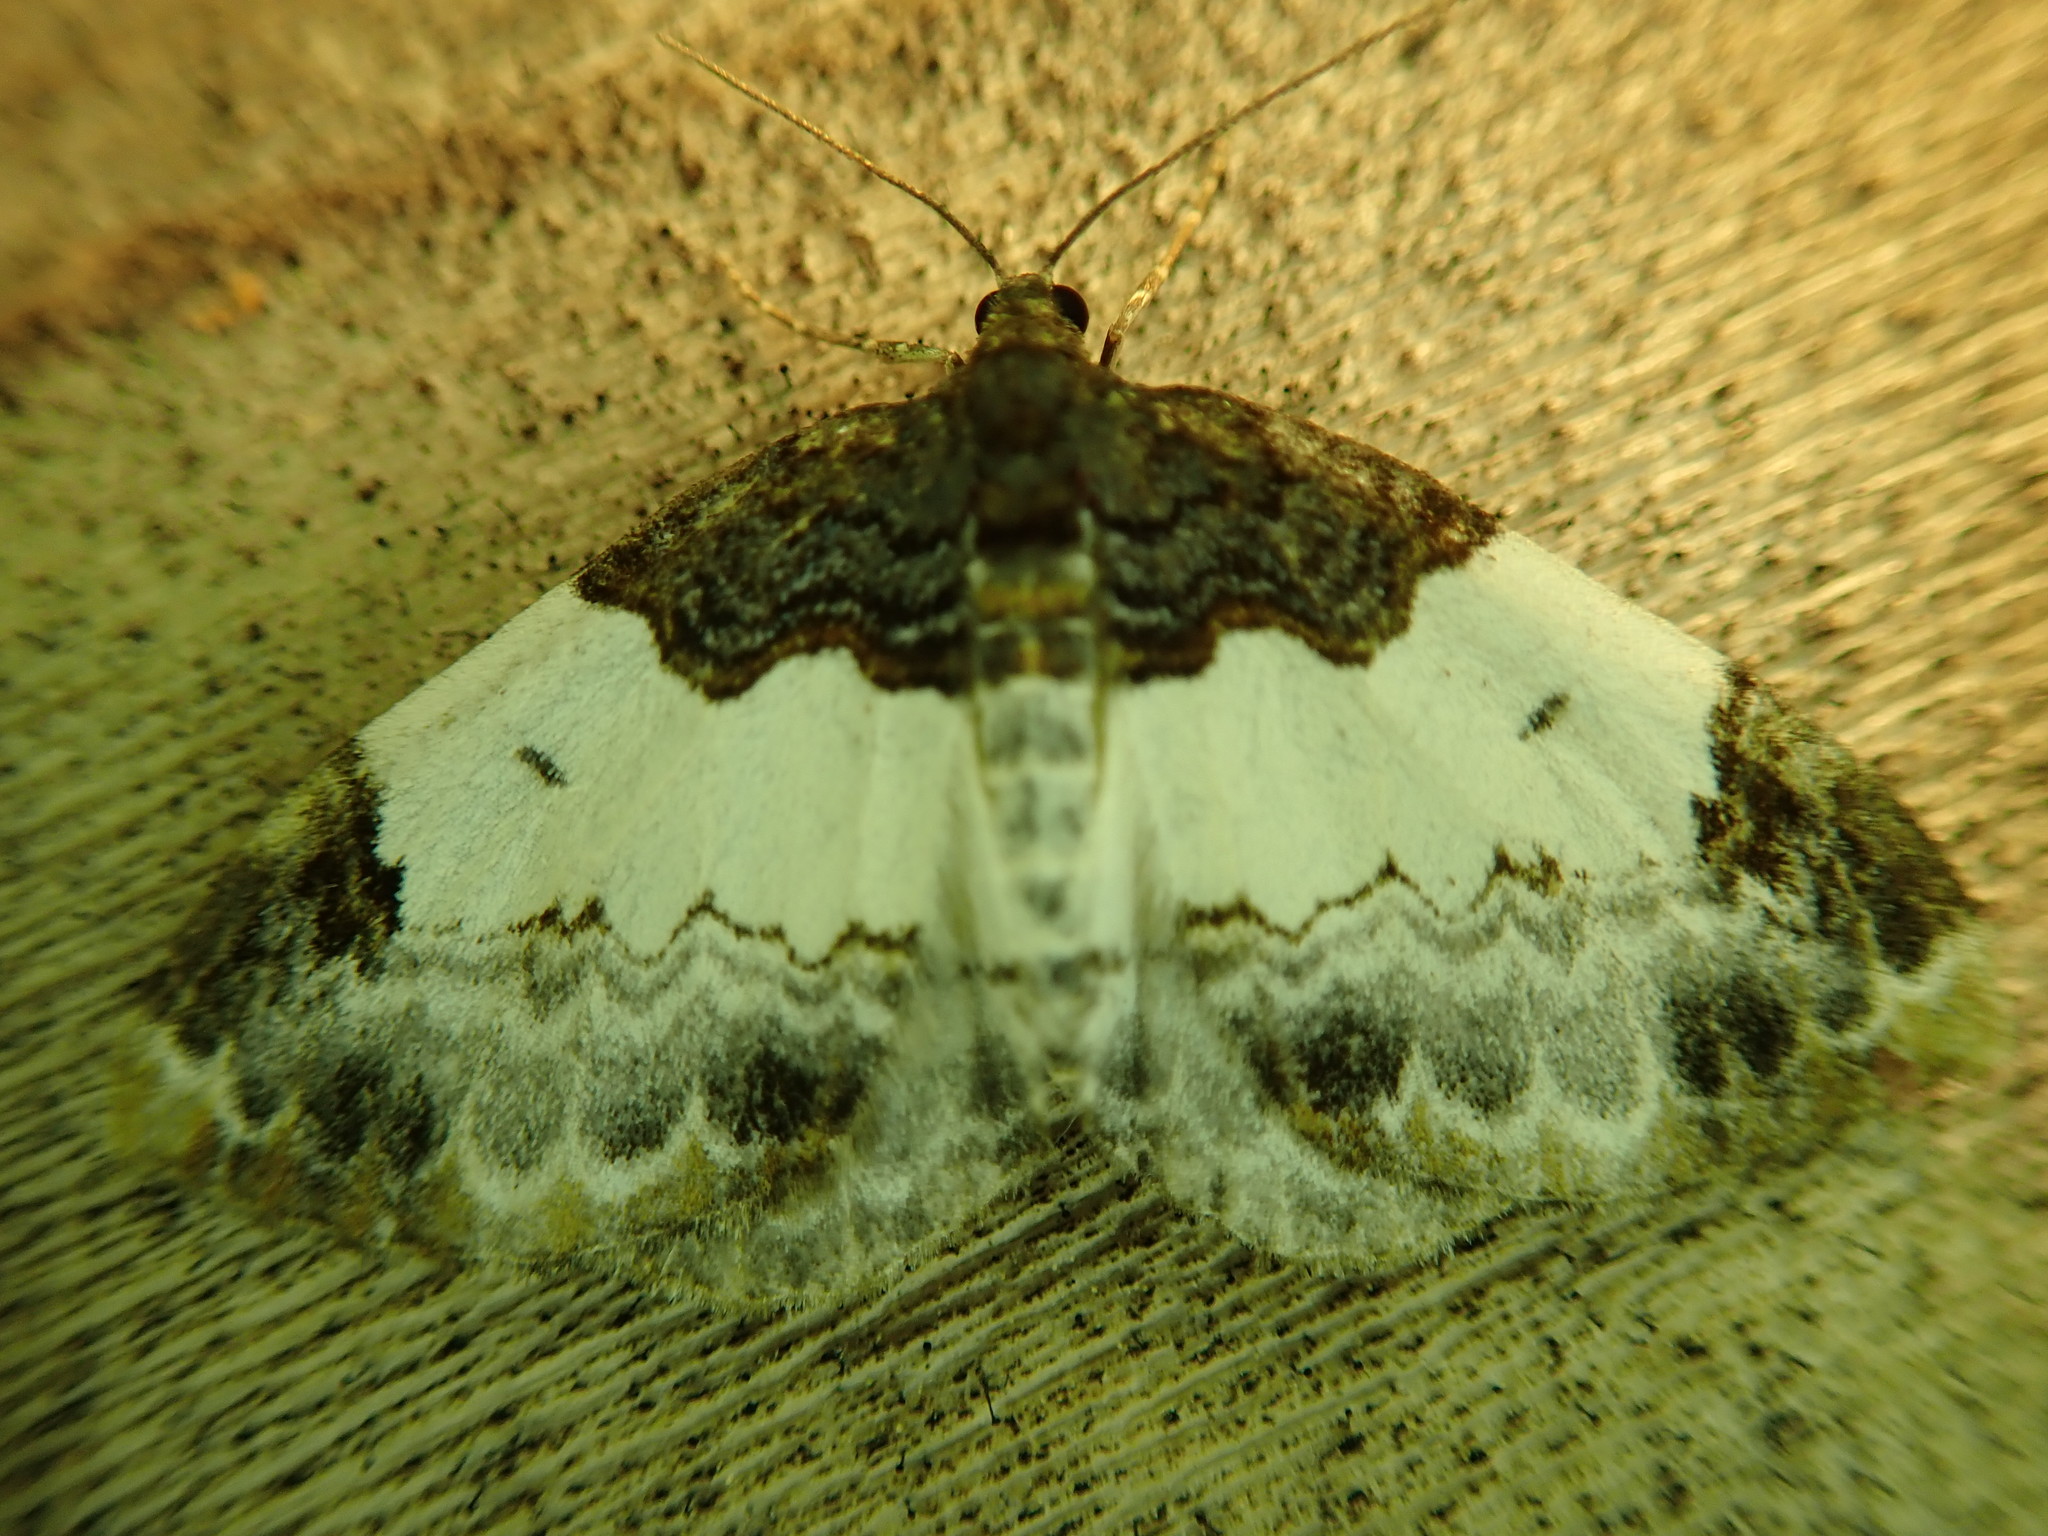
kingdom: Animalia
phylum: Arthropoda
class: Insecta
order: Lepidoptera
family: Geometridae
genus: Mesoleuca
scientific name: Mesoleuca ruficillata
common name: White-ribboned carpet moth
